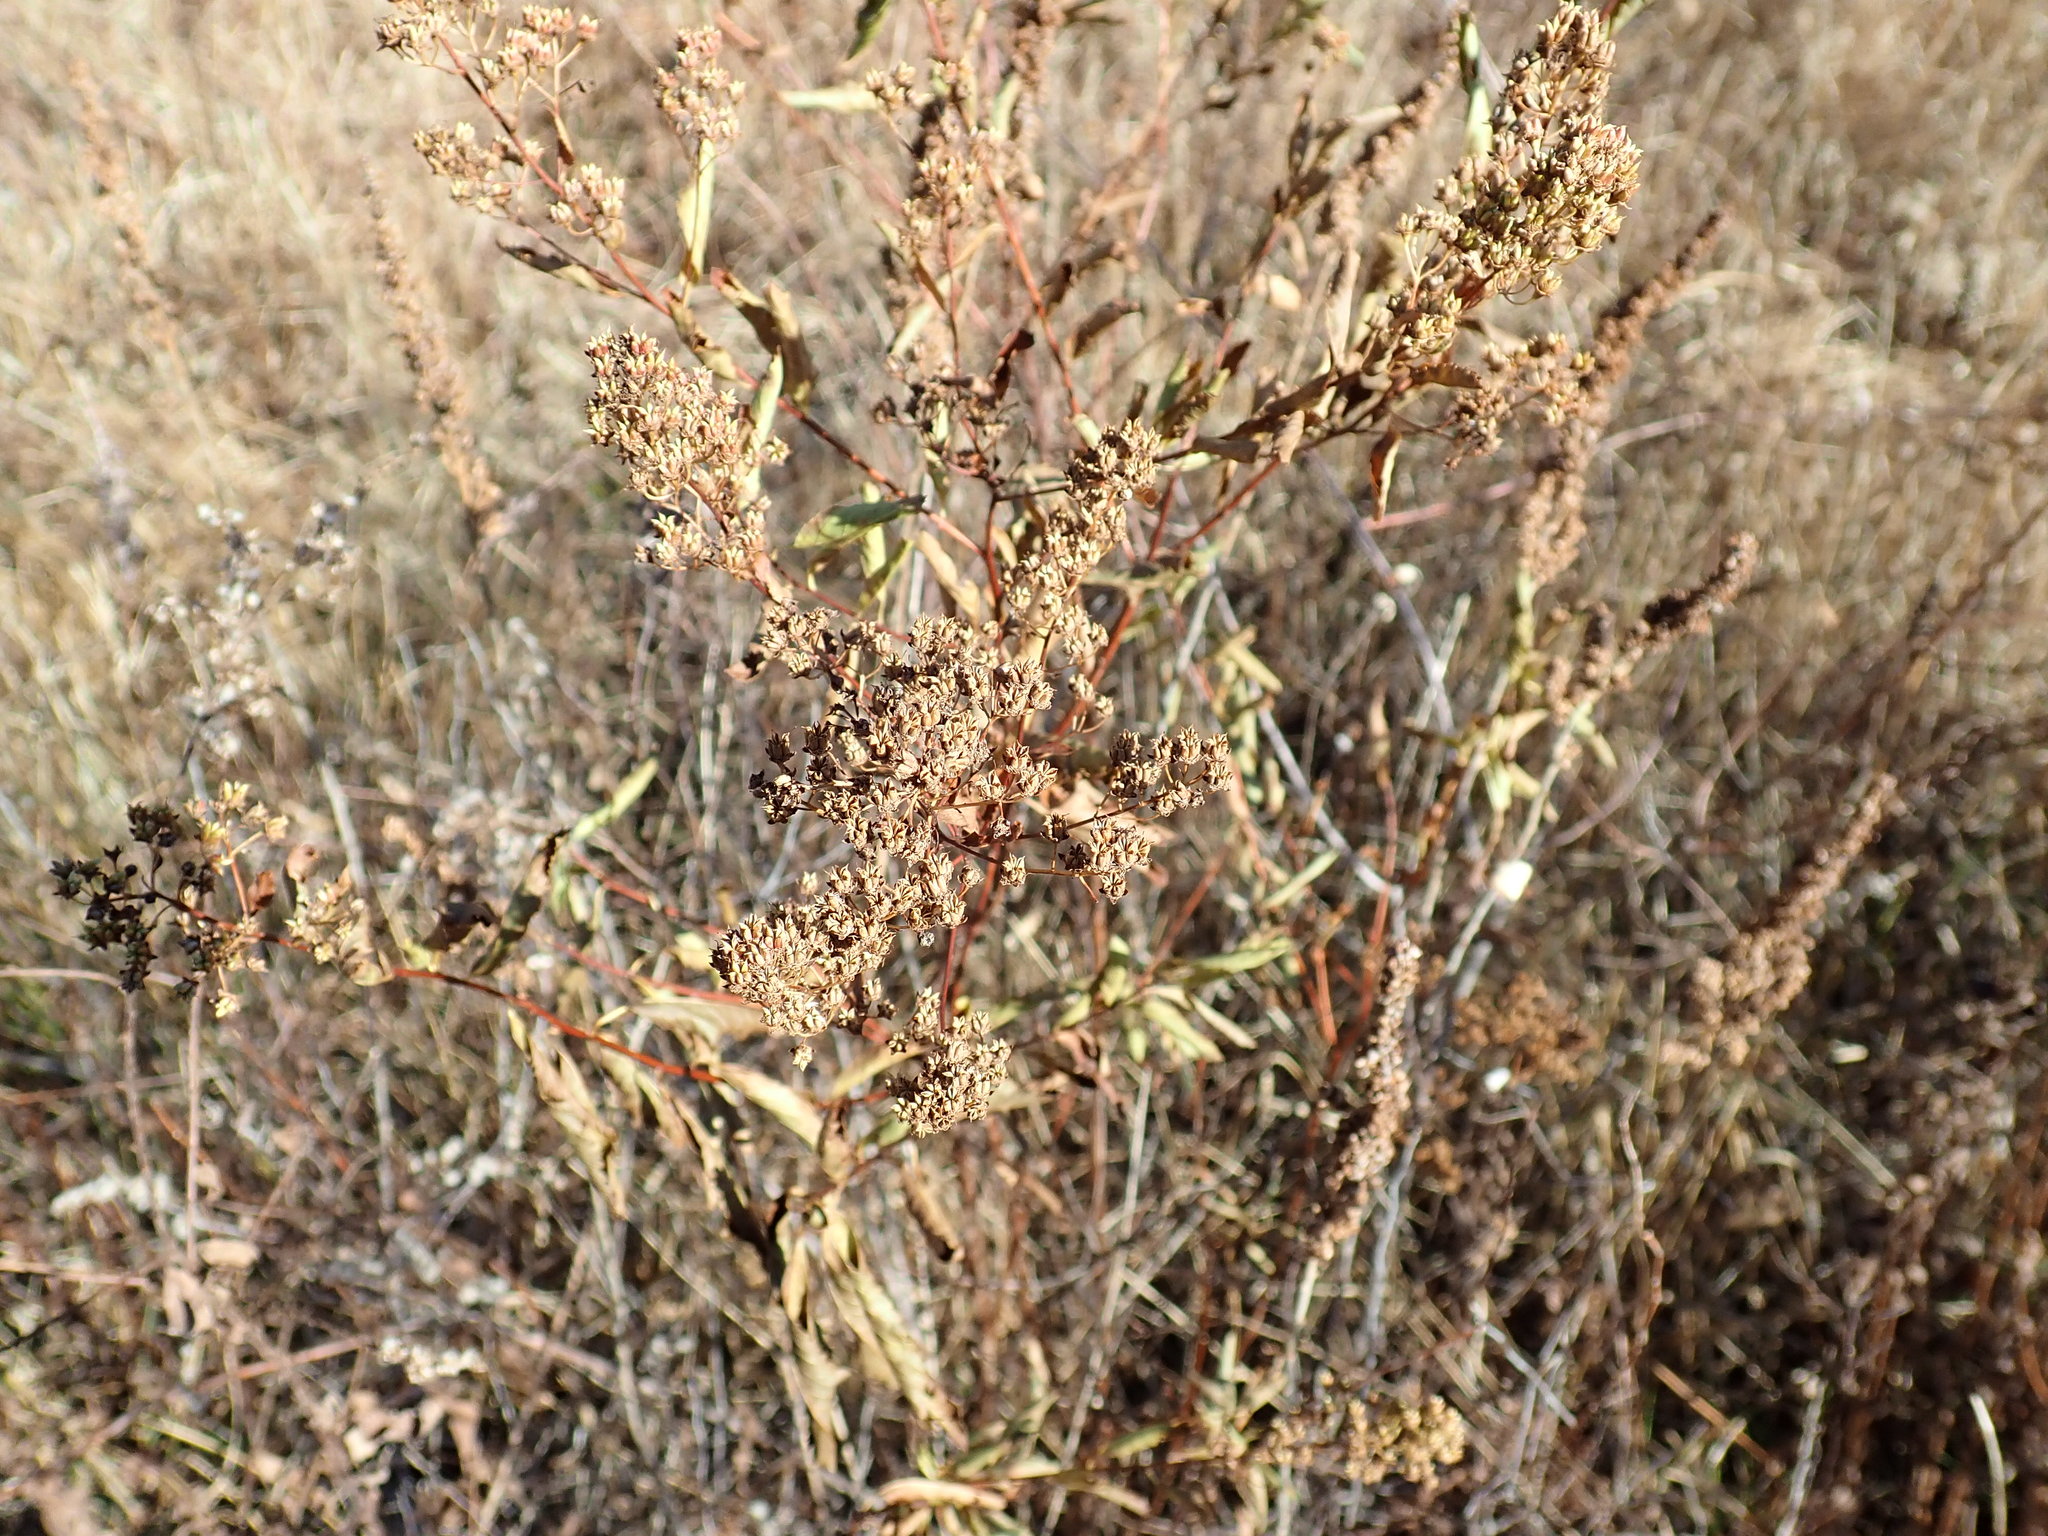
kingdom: Plantae
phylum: Tracheophyta
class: Magnoliopsida
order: Rosales
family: Rosaceae
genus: Spiraea
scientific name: Spiraea alba
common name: Pale bridewort
